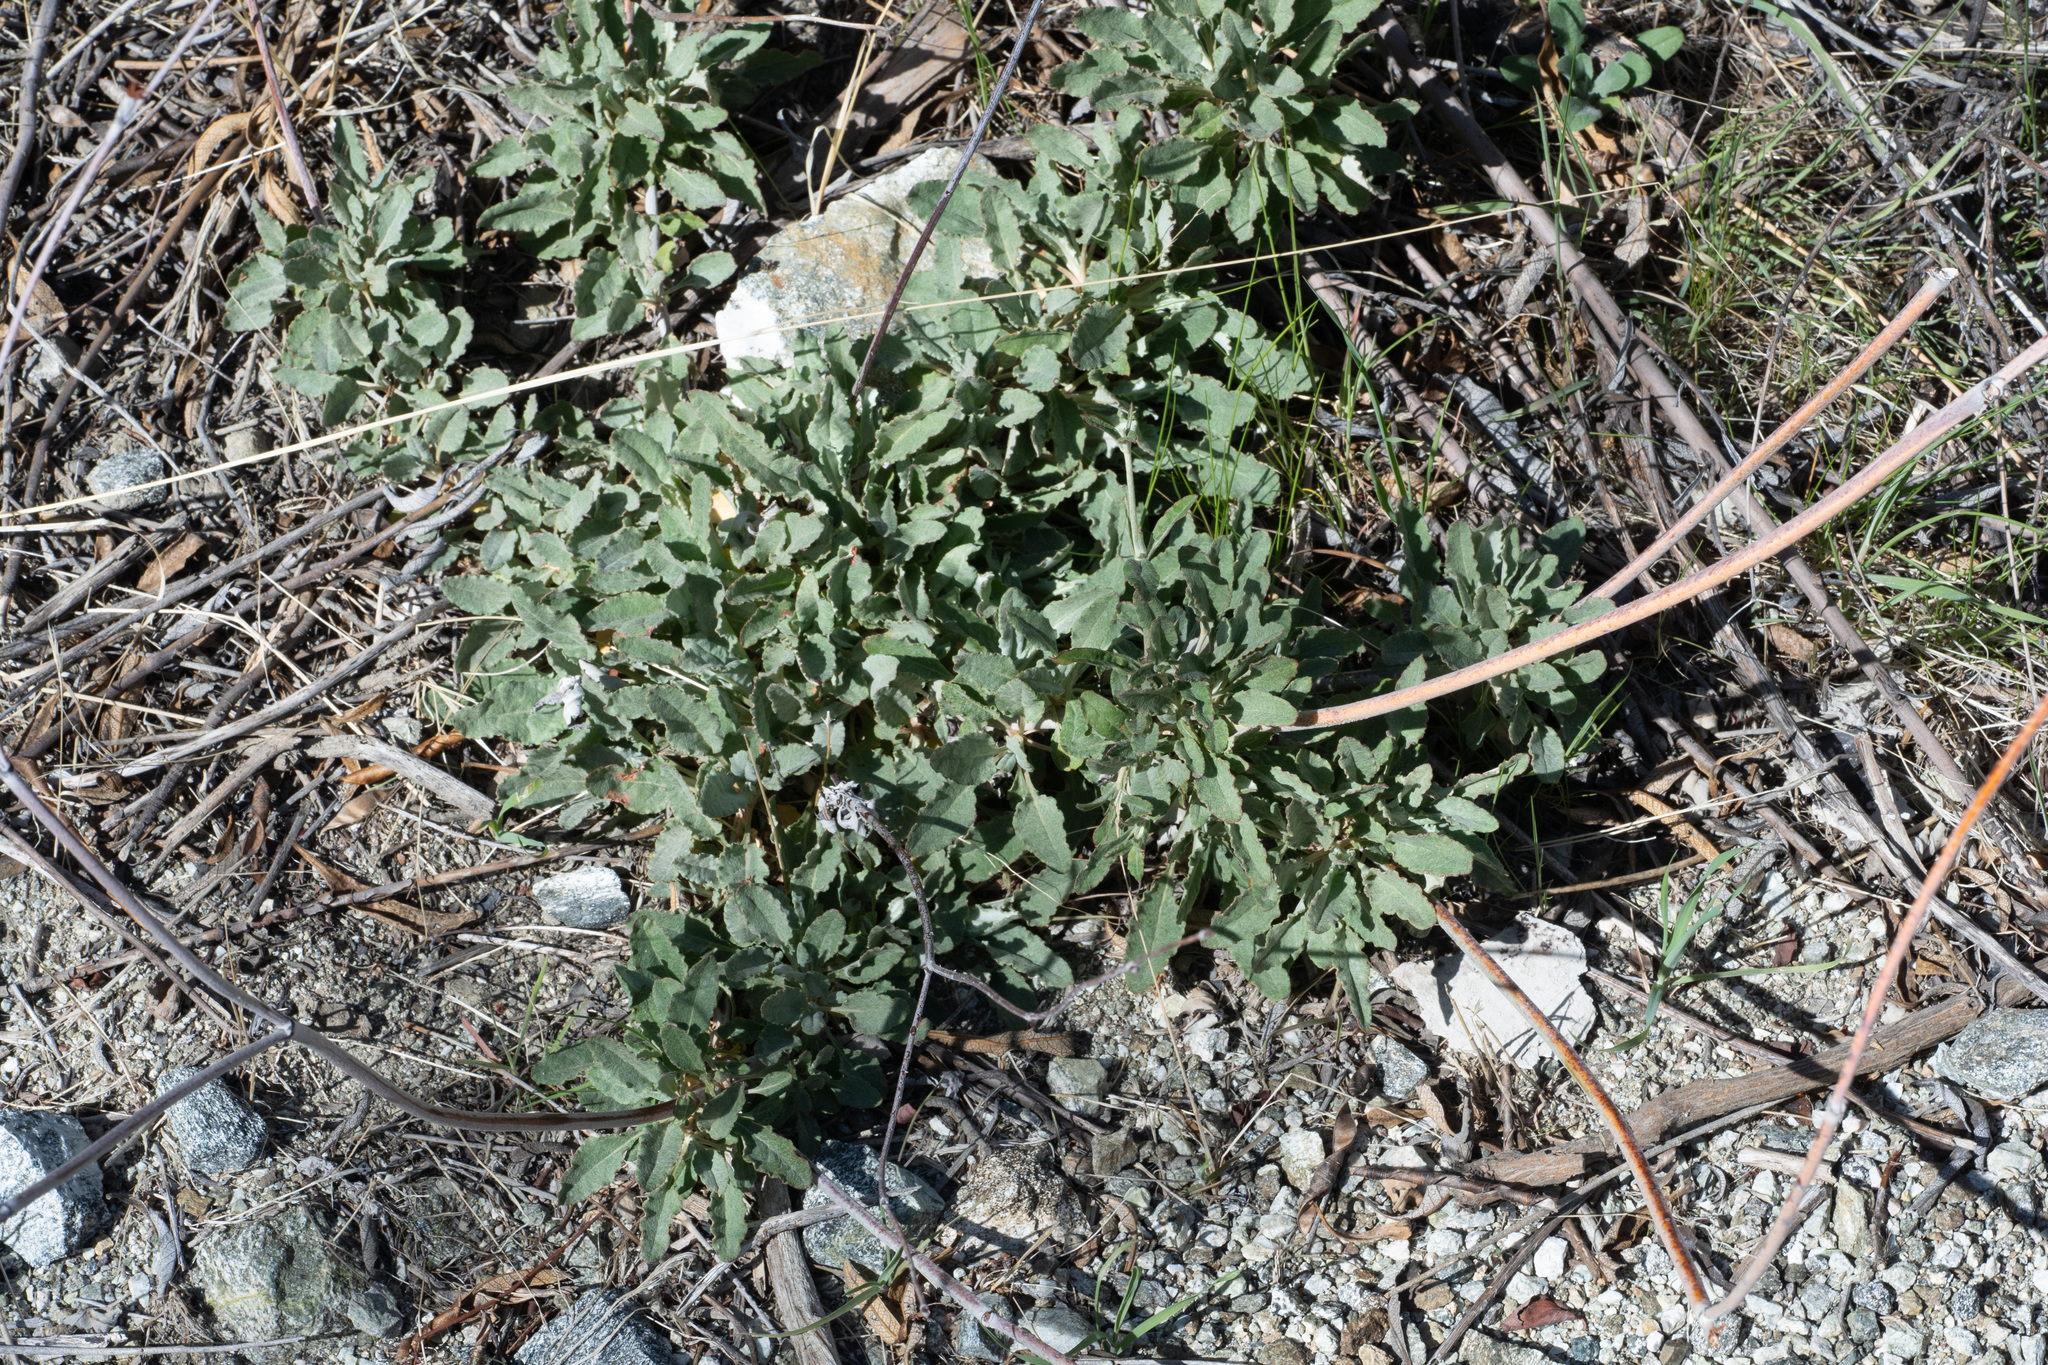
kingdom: Plantae
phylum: Tracheophyta
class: Magnoliopsida
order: Caryophyllales
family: Polygonaceae
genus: Eriogonum
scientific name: Eriogonum elongatum
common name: Long-stem wild buckwheat
